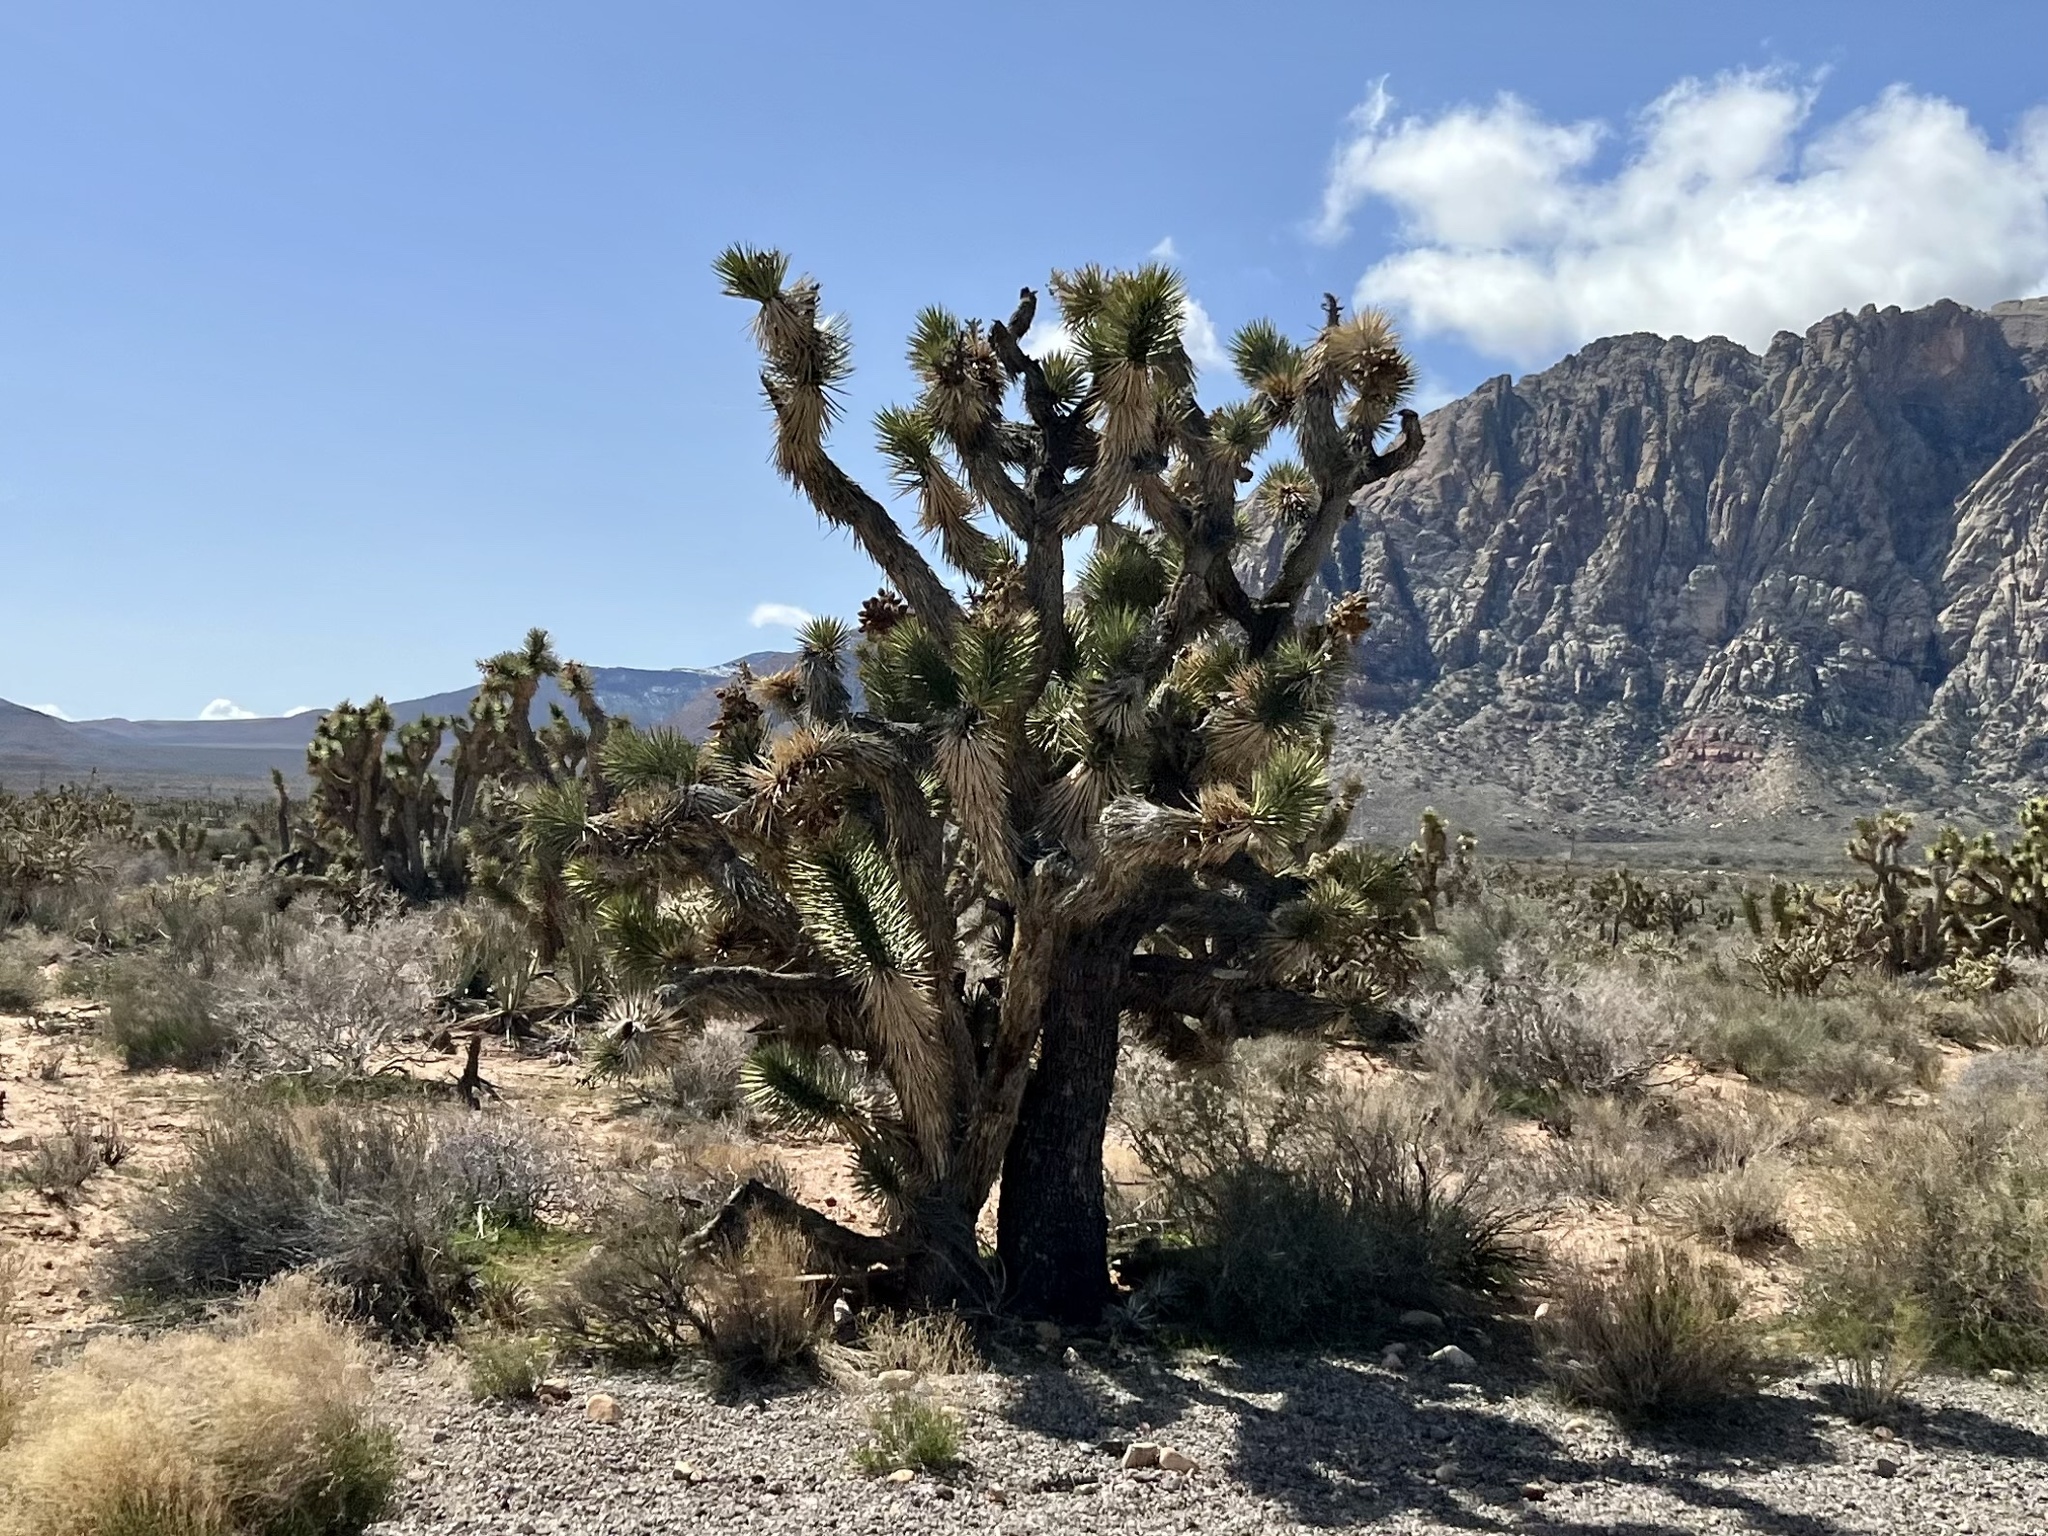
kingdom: Plantae
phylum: Tracheophyta
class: Liliopsida
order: Asparagales
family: Asparagaceae
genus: Yucca
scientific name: Yucca brevifolia
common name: Joshua tree
